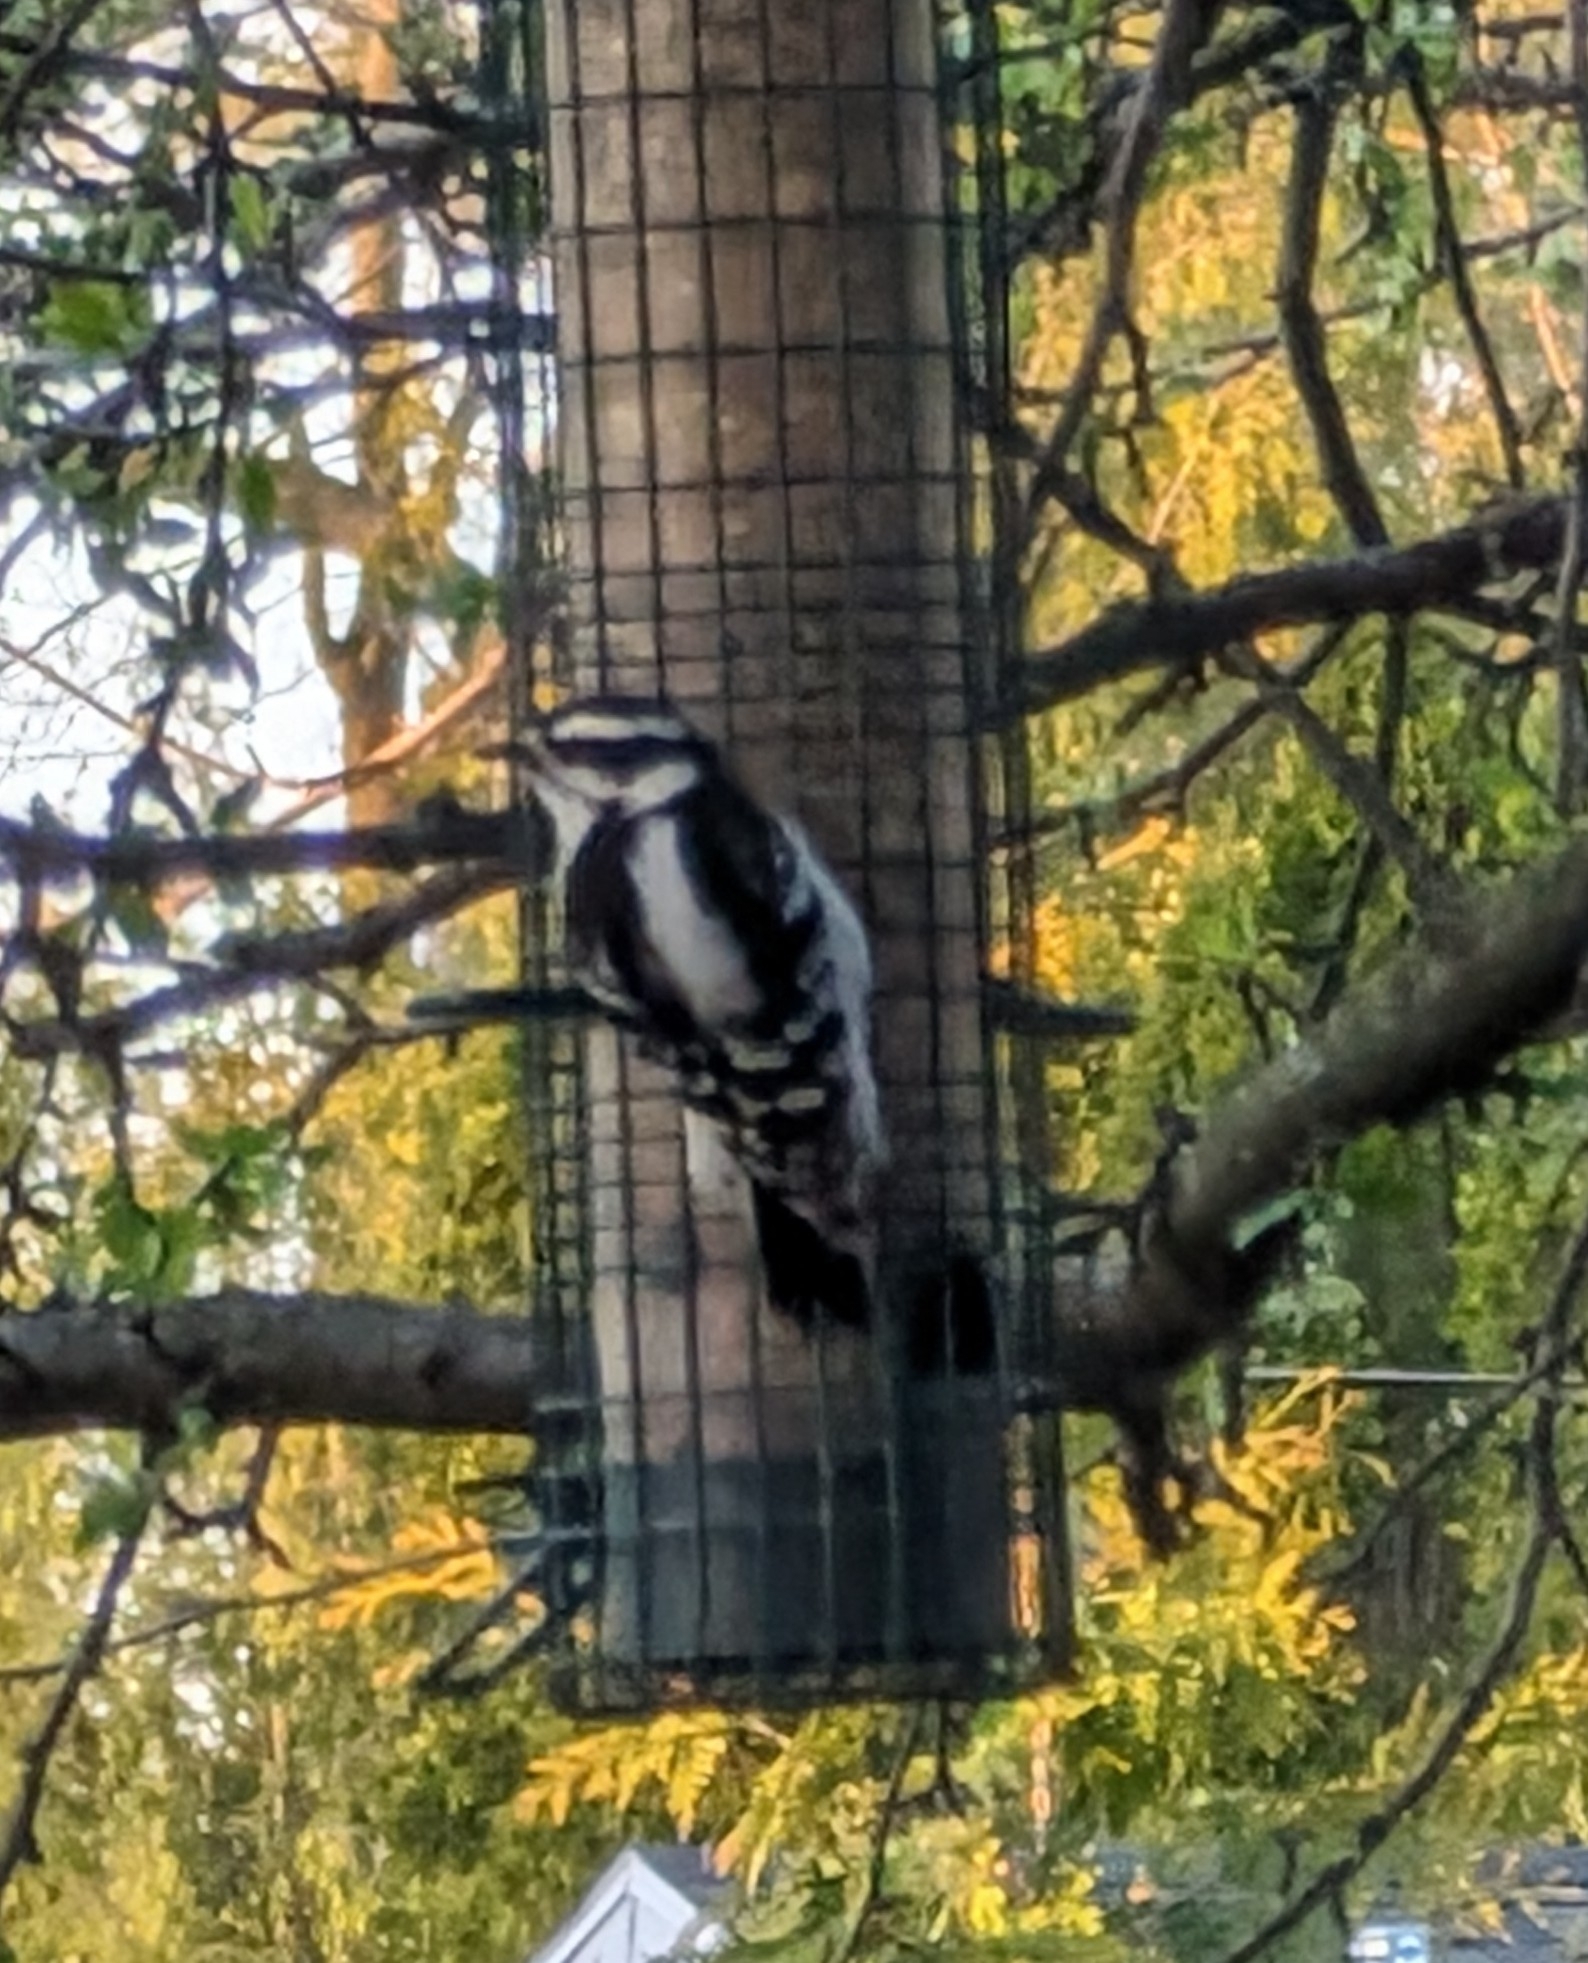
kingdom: Animalia
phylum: Chordata
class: Aves
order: Piciformes
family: Picidae
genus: Dryobates
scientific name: Dryobates pubescens
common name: Downy woodpecker
